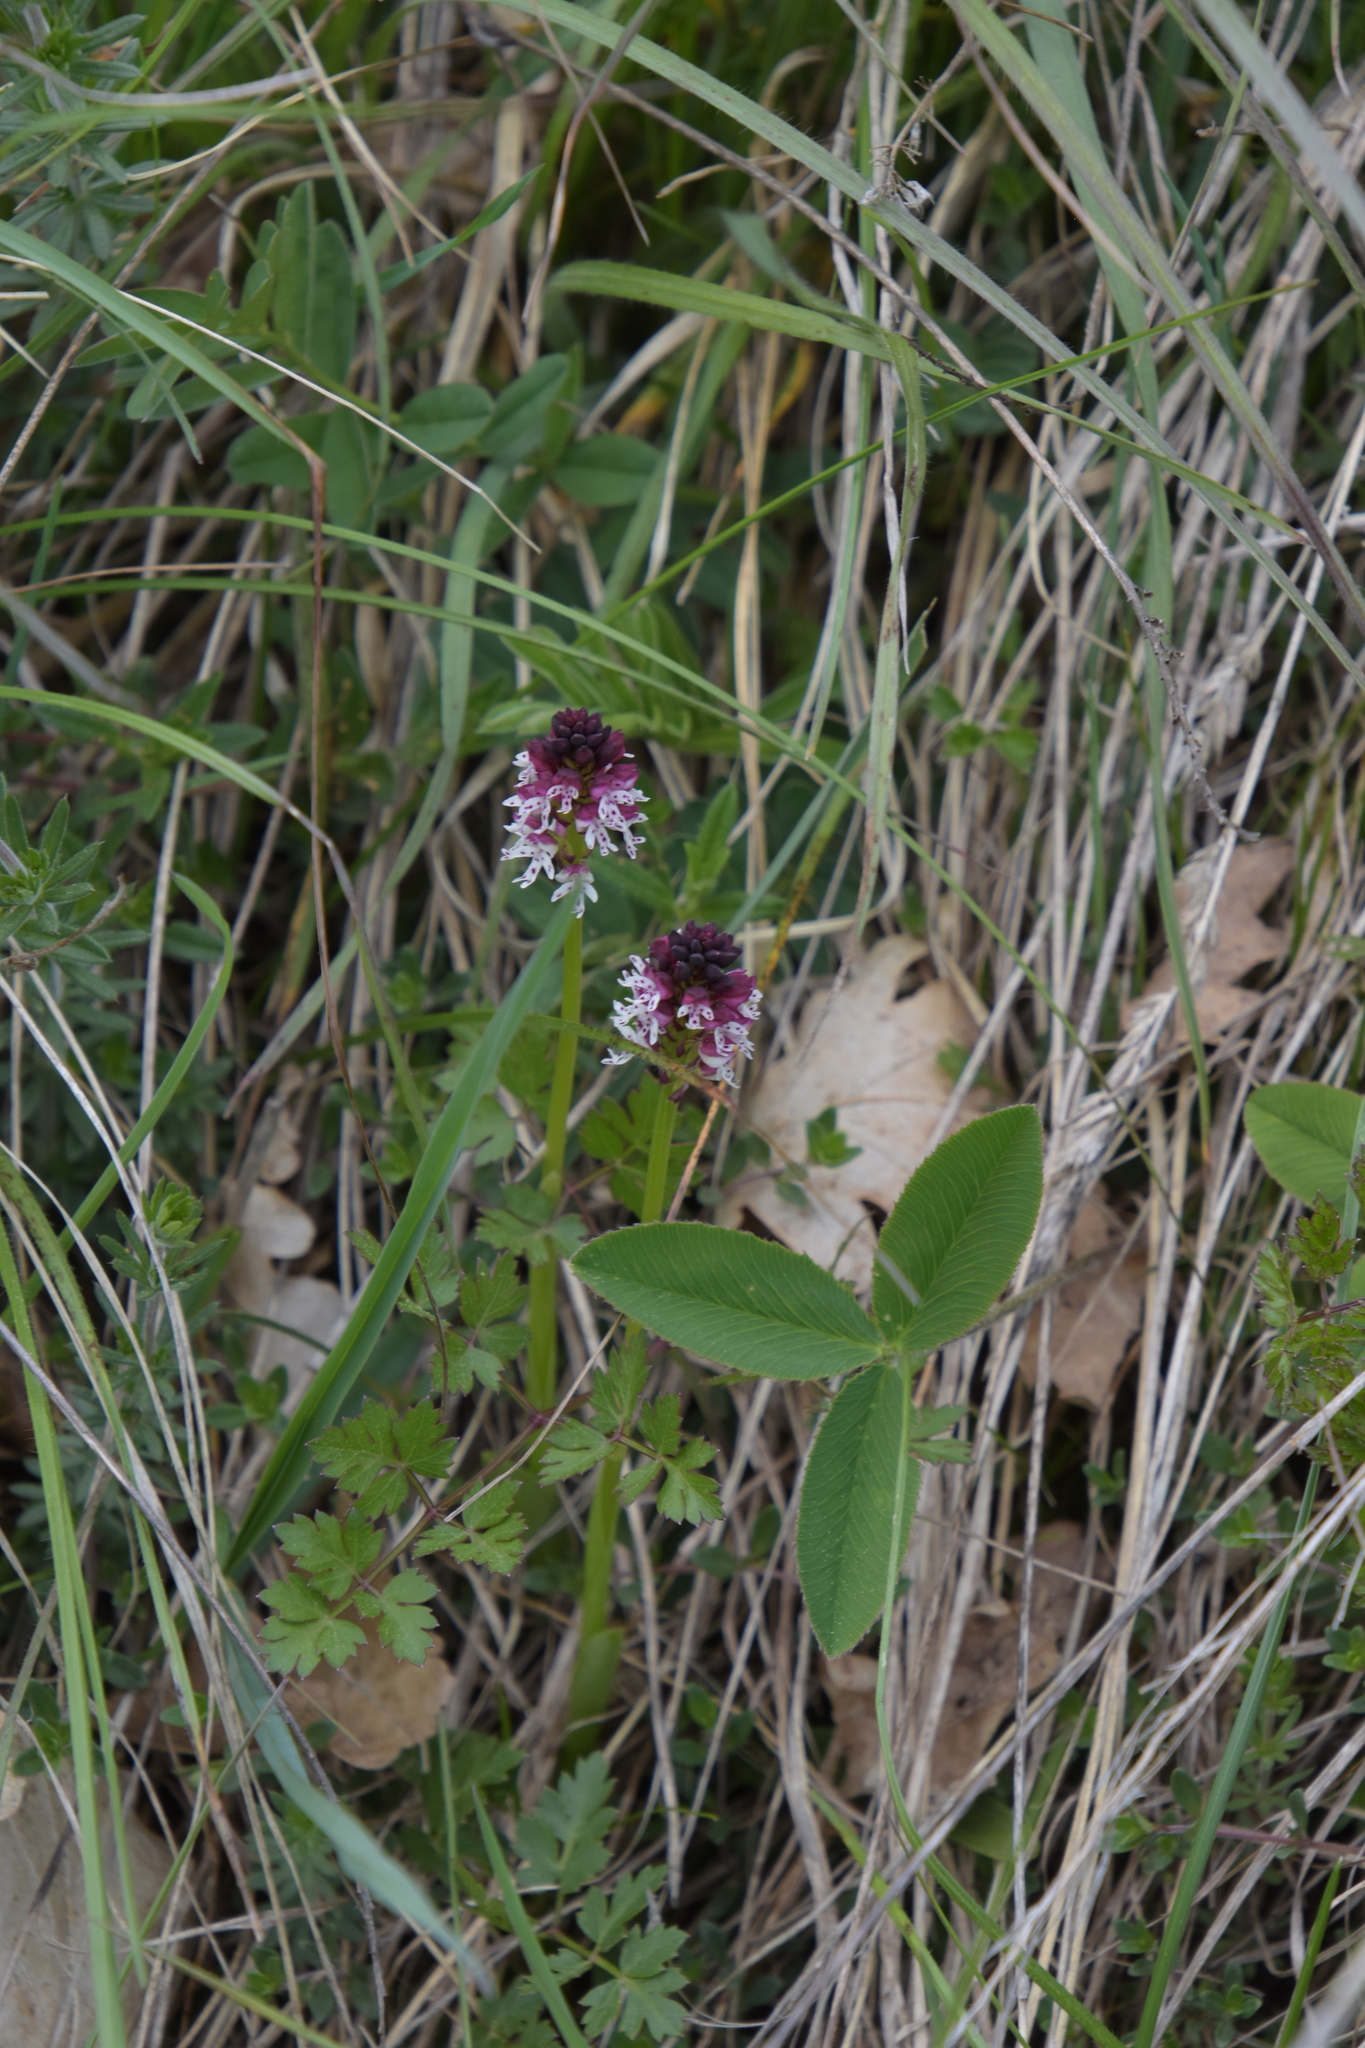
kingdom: Plantae
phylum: Tracheophyta
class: Liliopsida
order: Asparagales
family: Orchidaceae
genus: Neotinea
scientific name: Neotinea ustulata
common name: Burnt orchid
